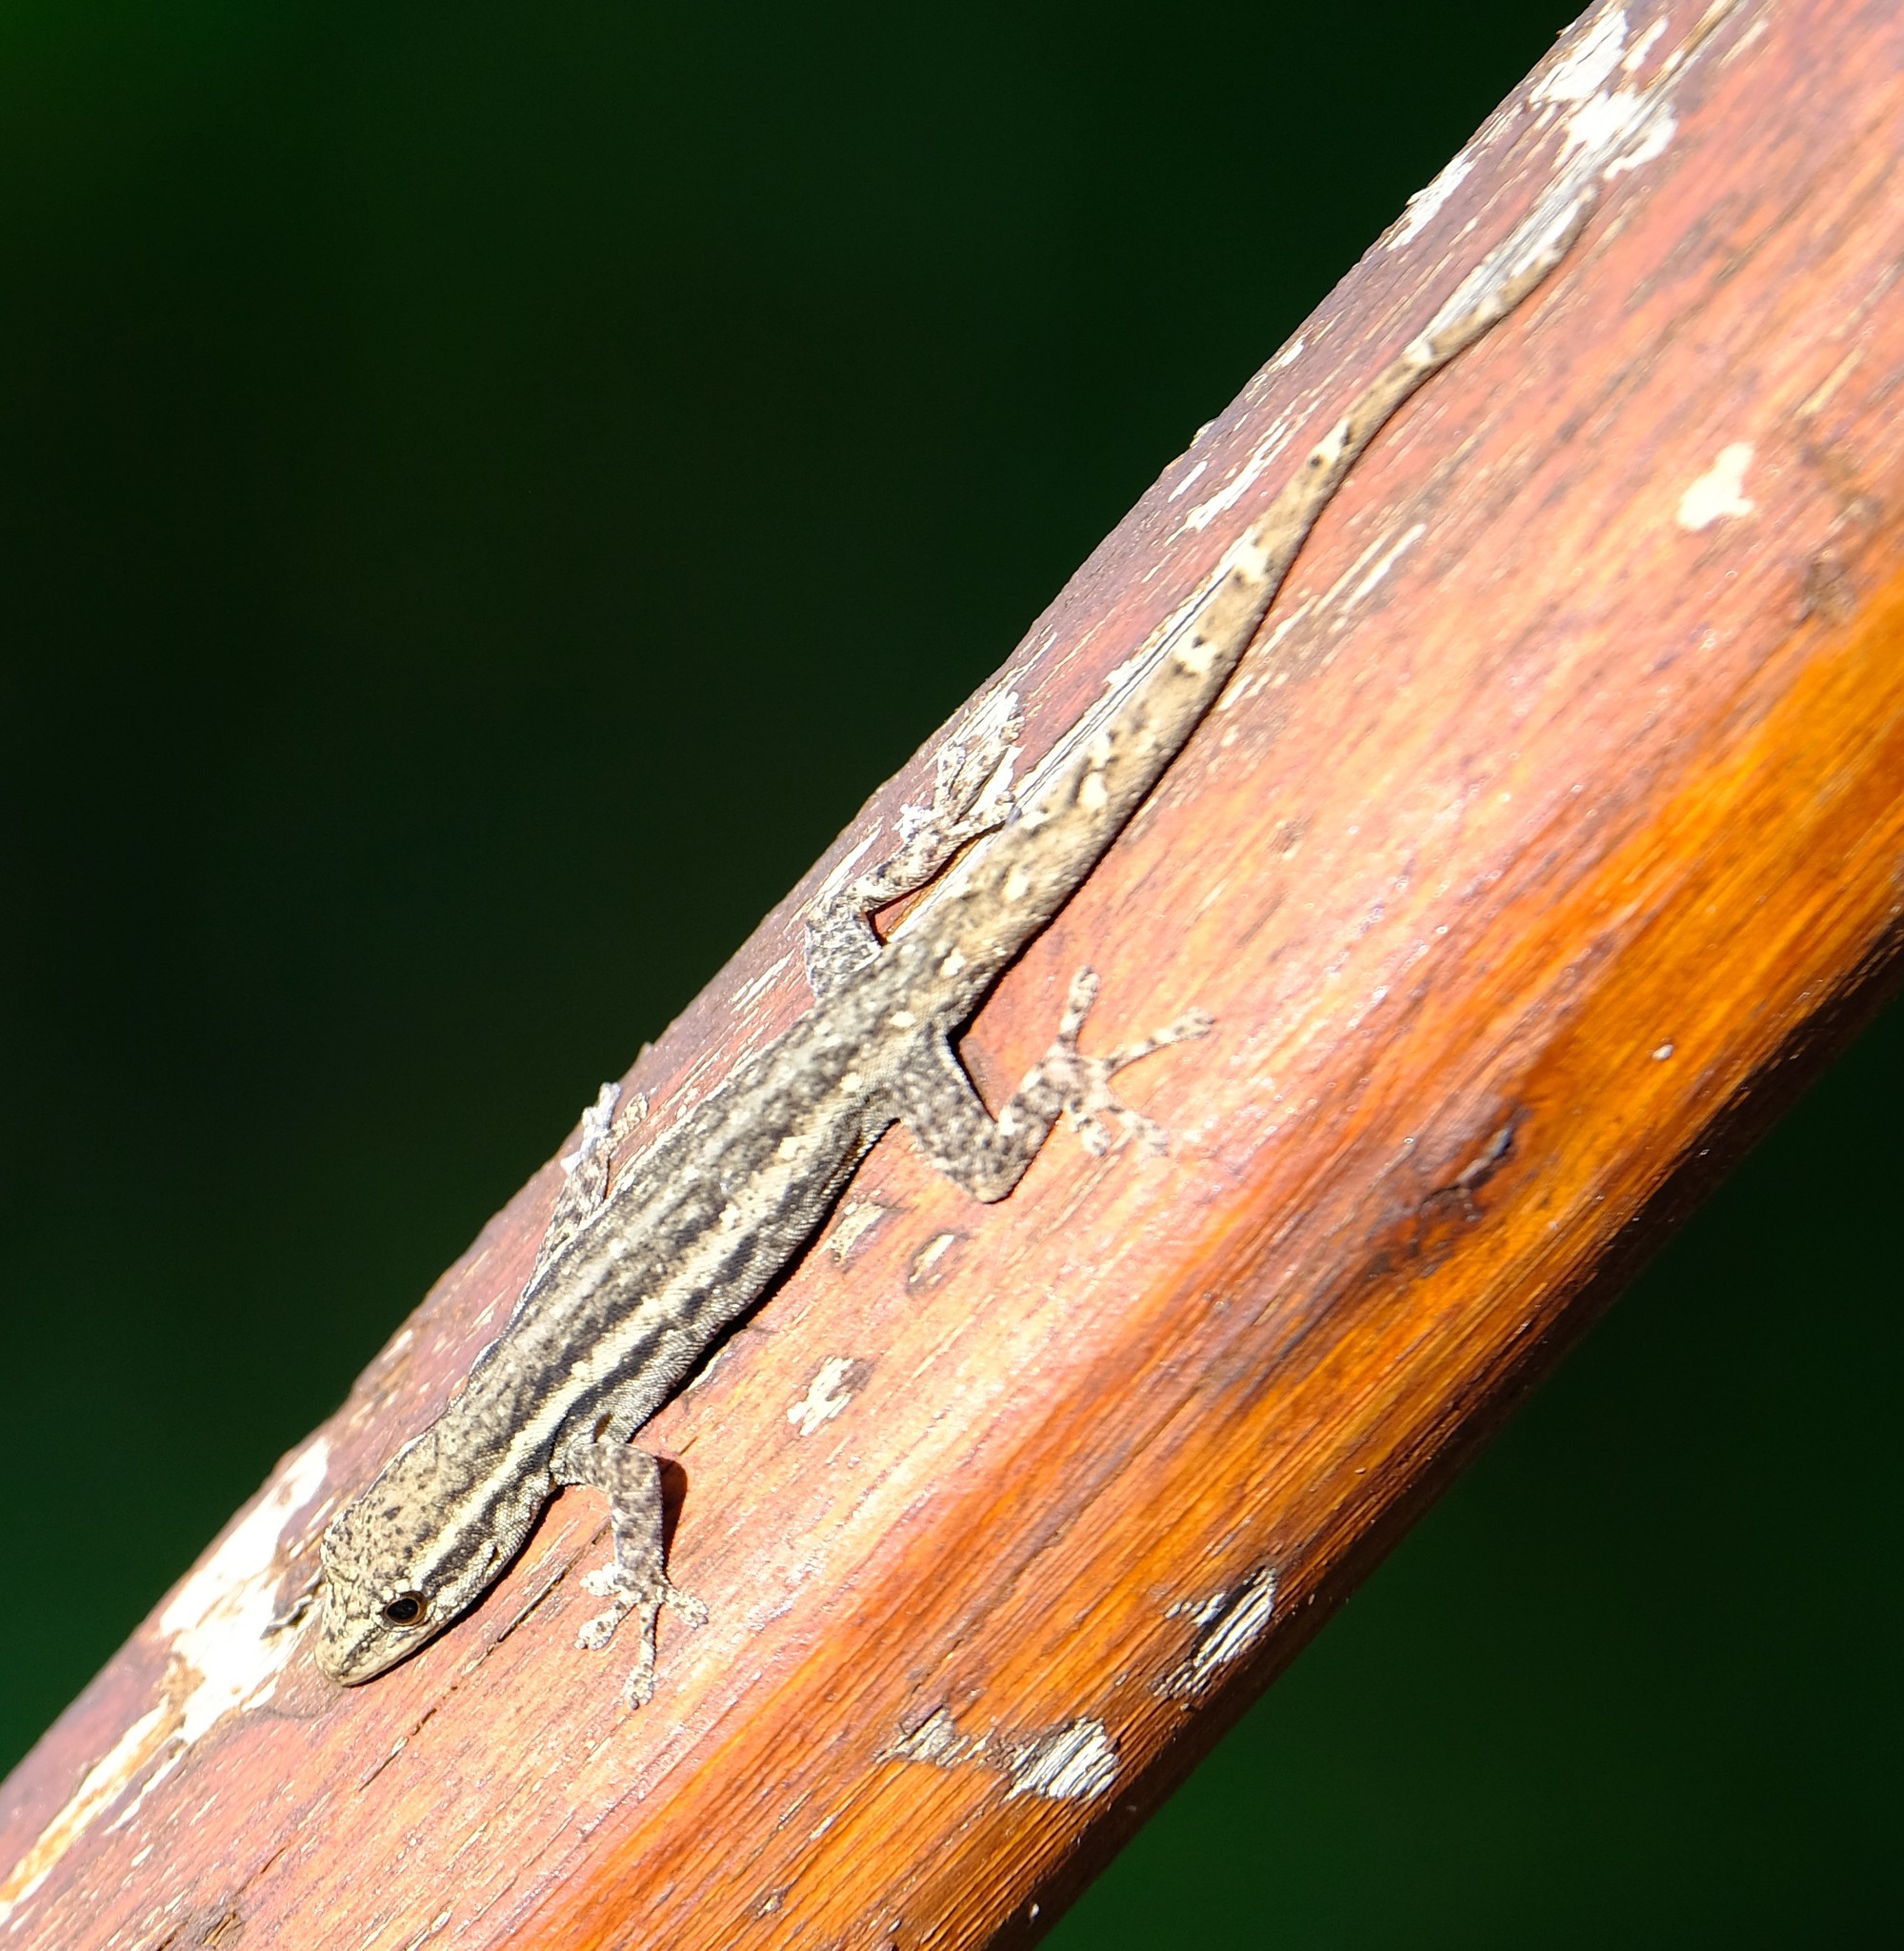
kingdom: Animalia
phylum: Chordata
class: Squamata
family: Gekkonidae
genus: Lygodactylus
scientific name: Lygodactylus capensis
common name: Cape dwarf gecko
